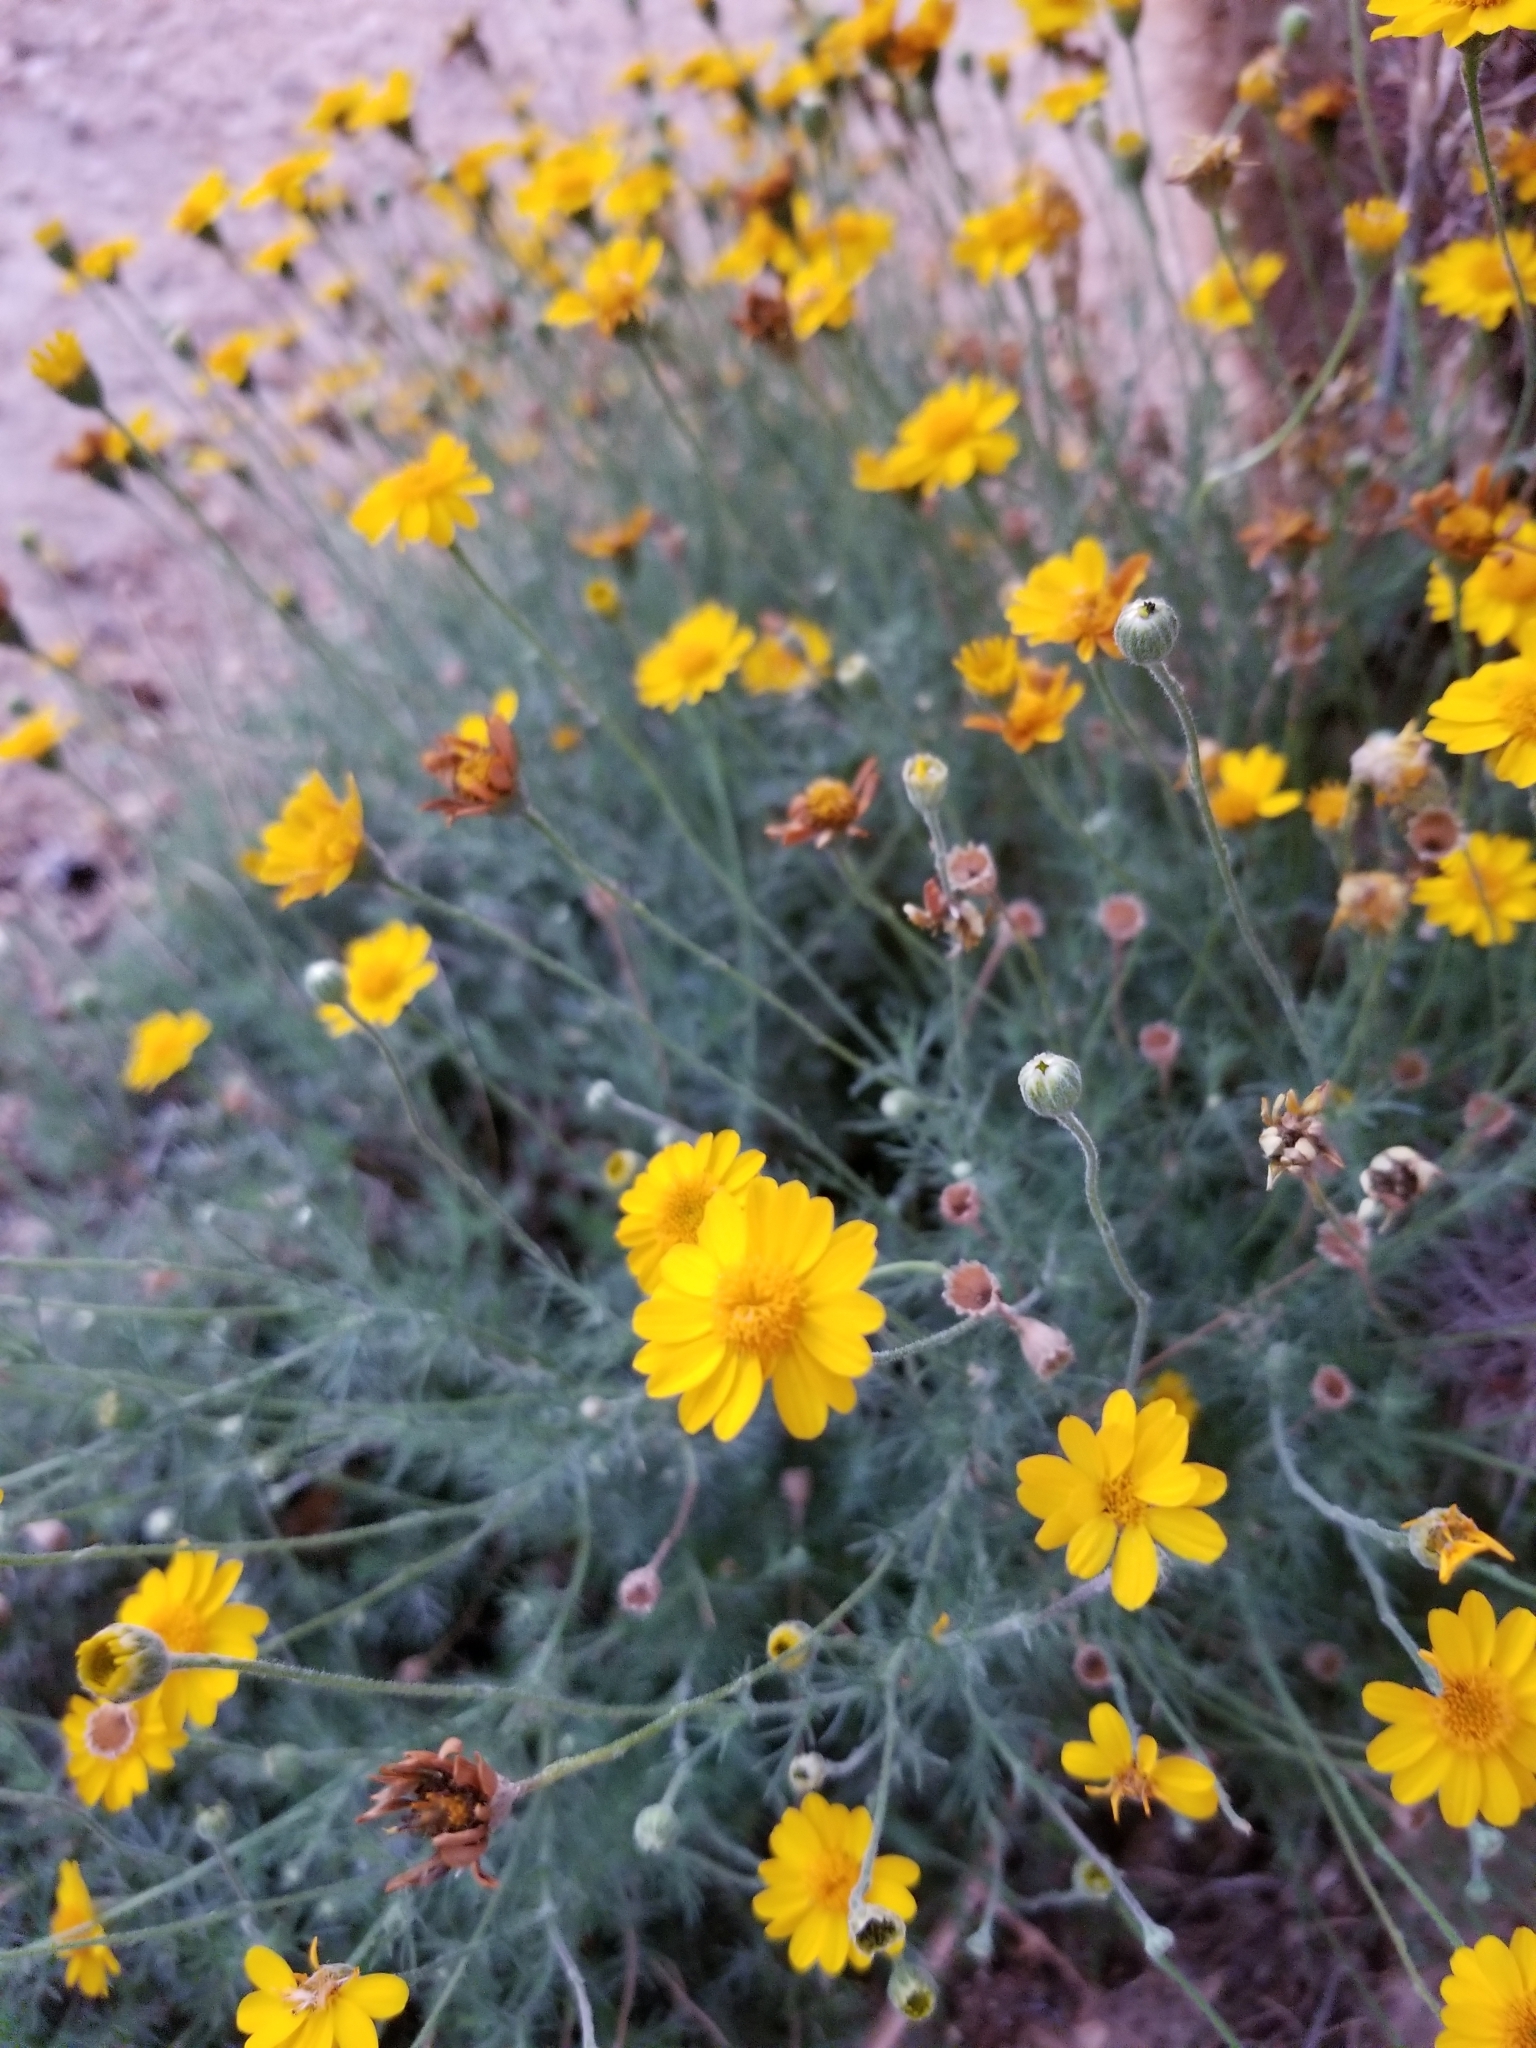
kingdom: Plantae
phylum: Tracheophyta
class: Magnoliopsida
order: Asterales
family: Asteraceae
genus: Thymophylla
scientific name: Thymophylla pentachaeta
